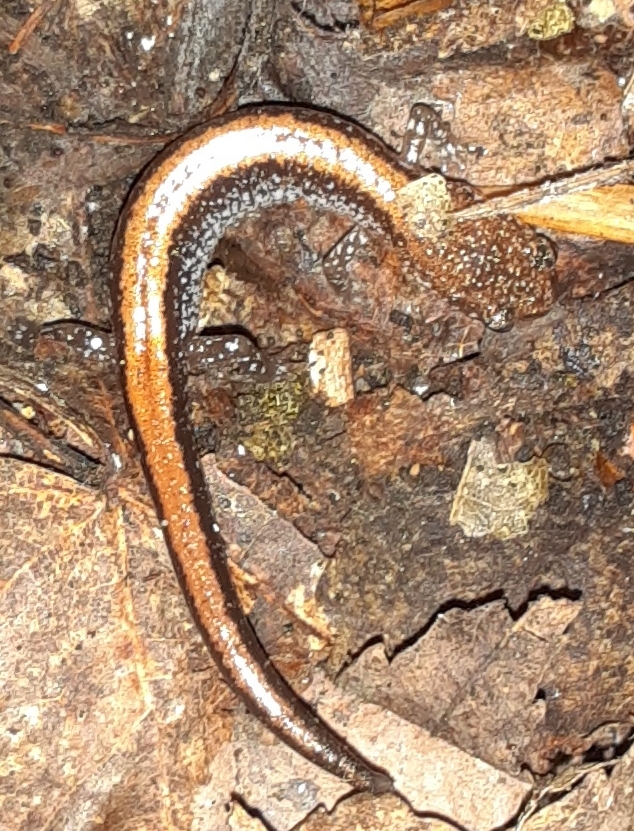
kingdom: Animalia
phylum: Chordata
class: Amphibia
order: Caudata
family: Plethodontidae
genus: Plethodon
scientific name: Plethodon cinereus
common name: Redback salamander
